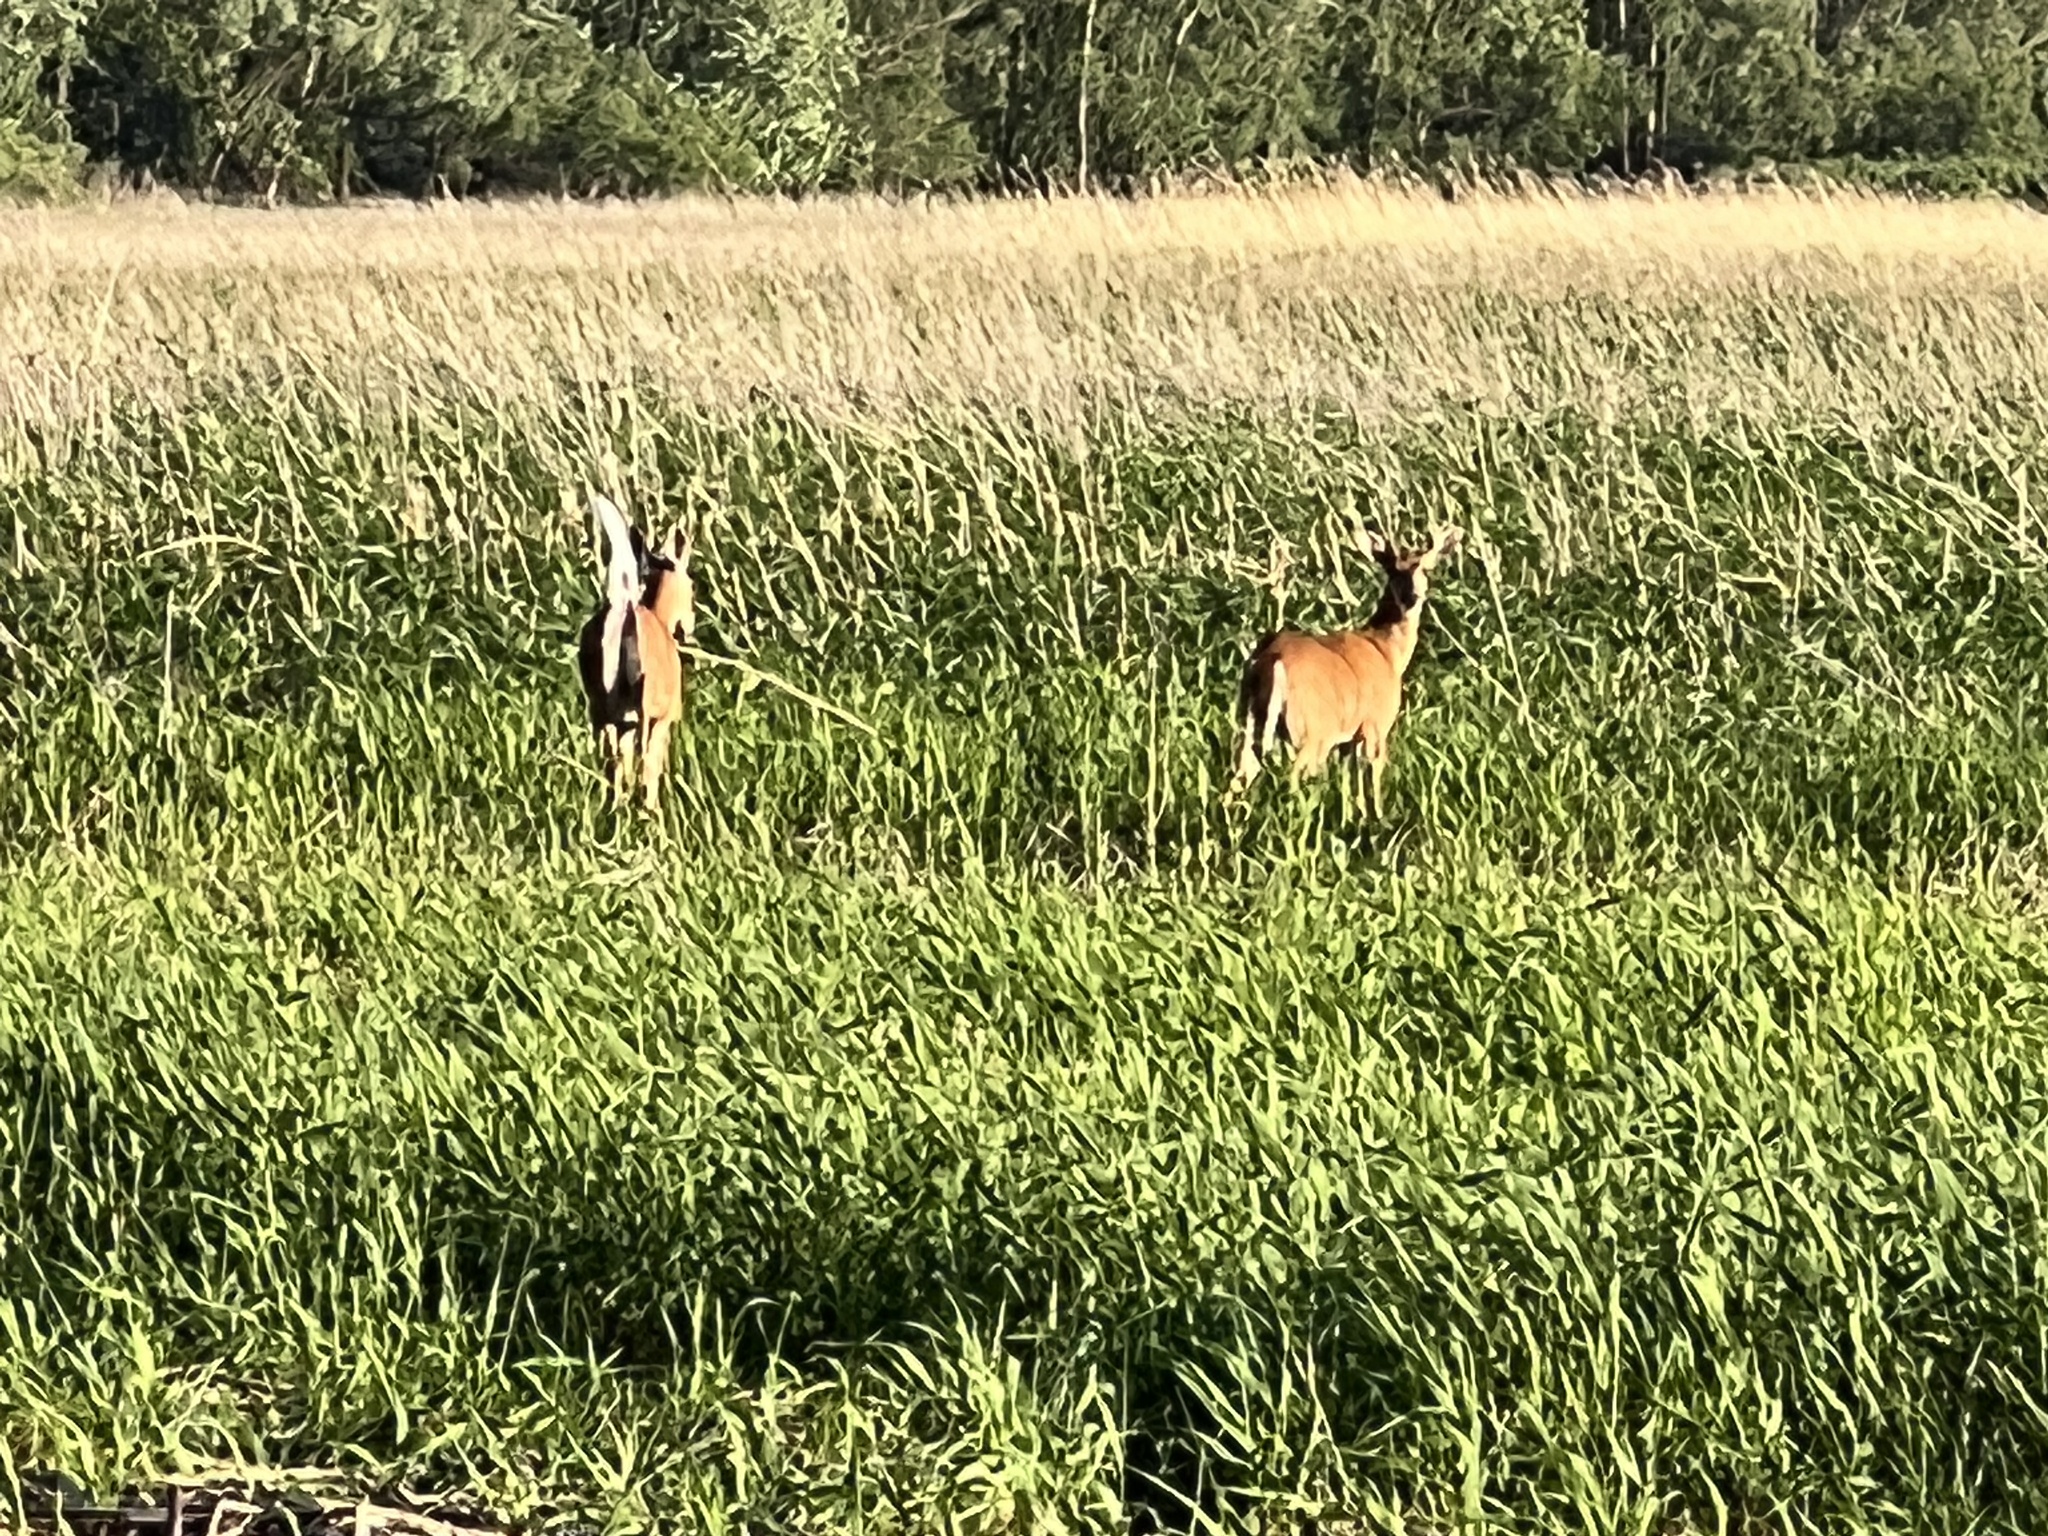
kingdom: Animalia
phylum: Chordata
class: Mammalia
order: Artiodactyla
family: Cervidae
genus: Odocoileus
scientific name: Odocoileus virginianus
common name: White-tailed deer
